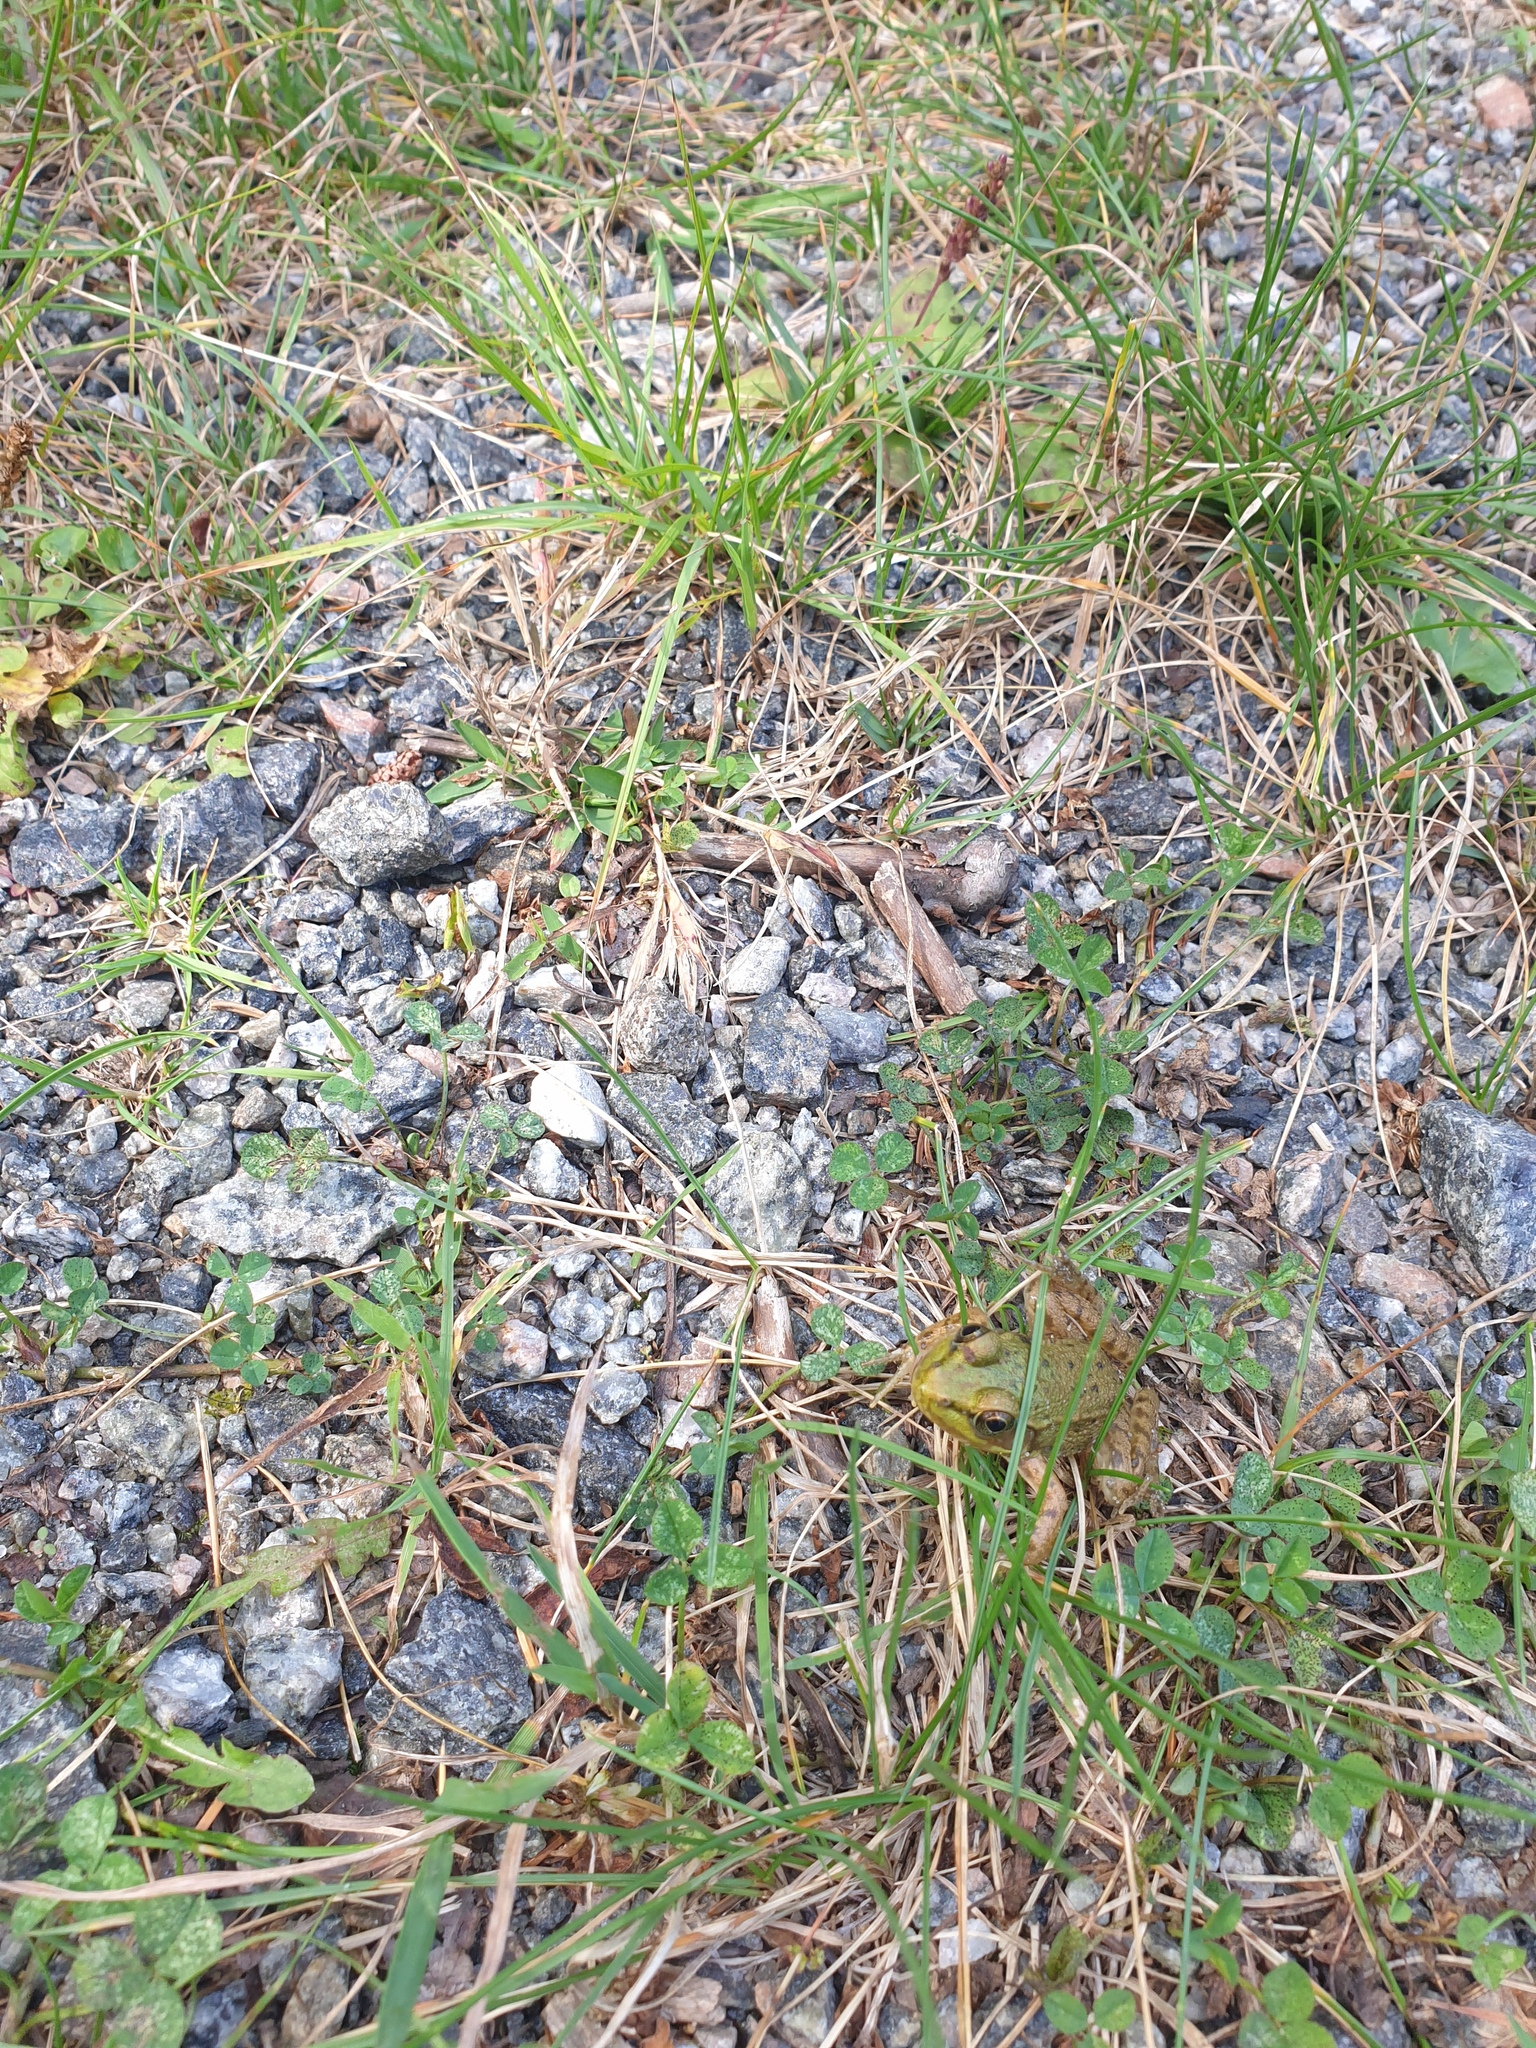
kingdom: Animalia
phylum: Chordata
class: Amphibia
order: Anura
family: Ranidae
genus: Lithobates
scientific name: Lithobates clamitans
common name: Green frog
